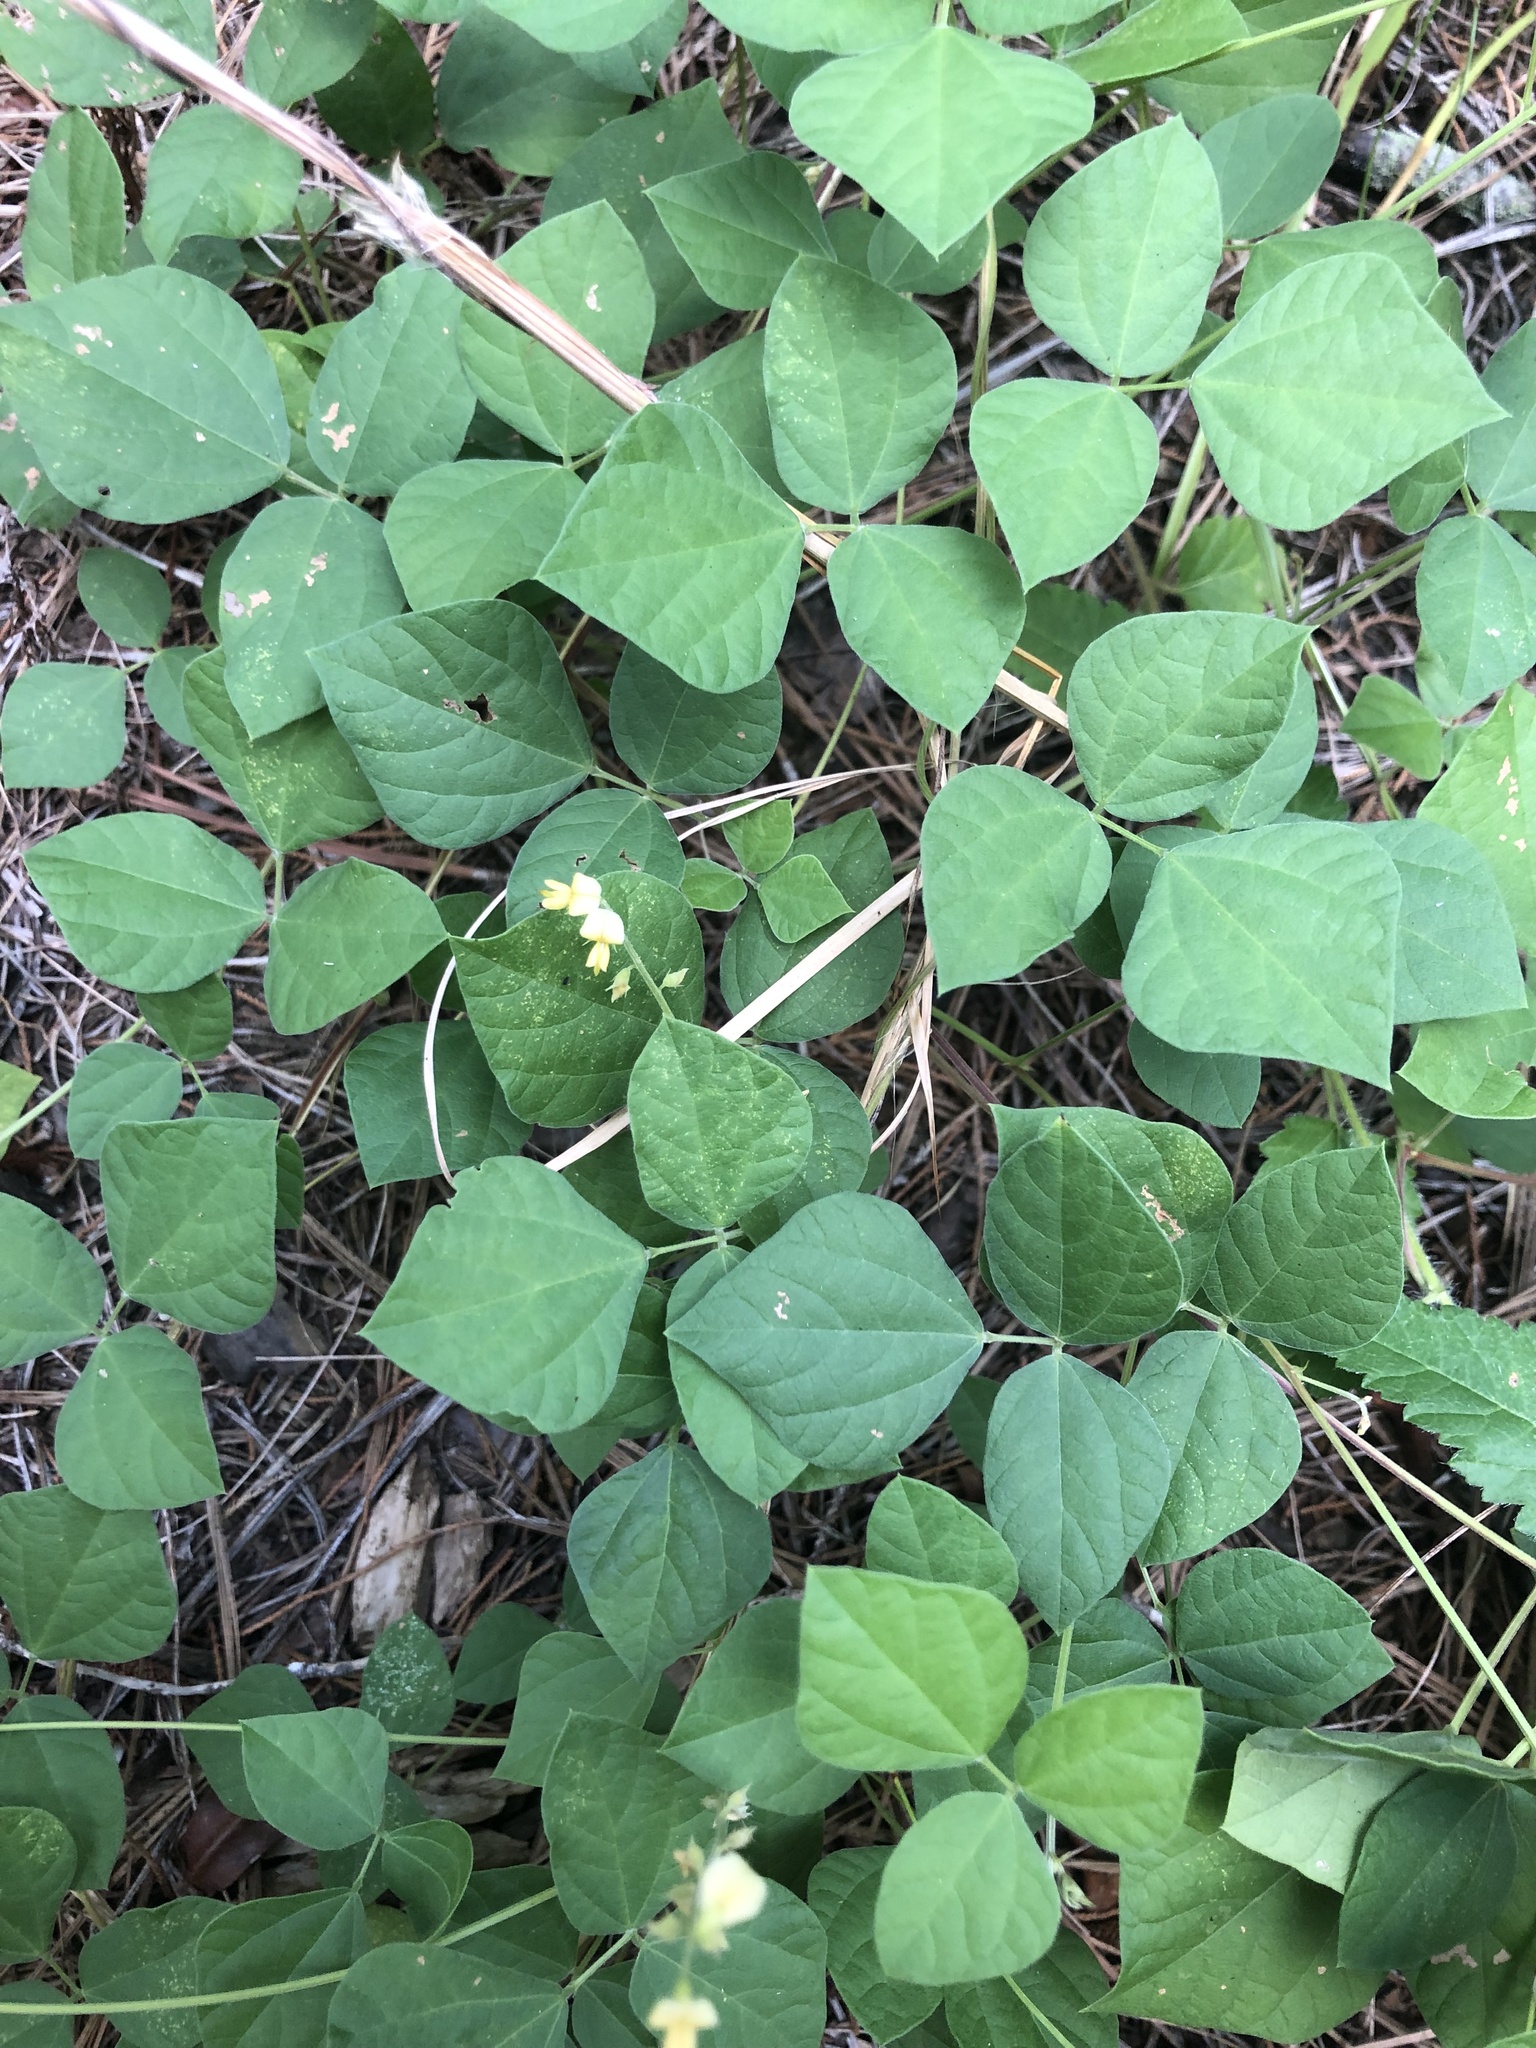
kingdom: Plantae
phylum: Tracheophyta
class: Magnoliopsida
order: Fabales
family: Fabaceae
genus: Rhynchosia
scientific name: Rhynchosia minima
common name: Least snoutbean
